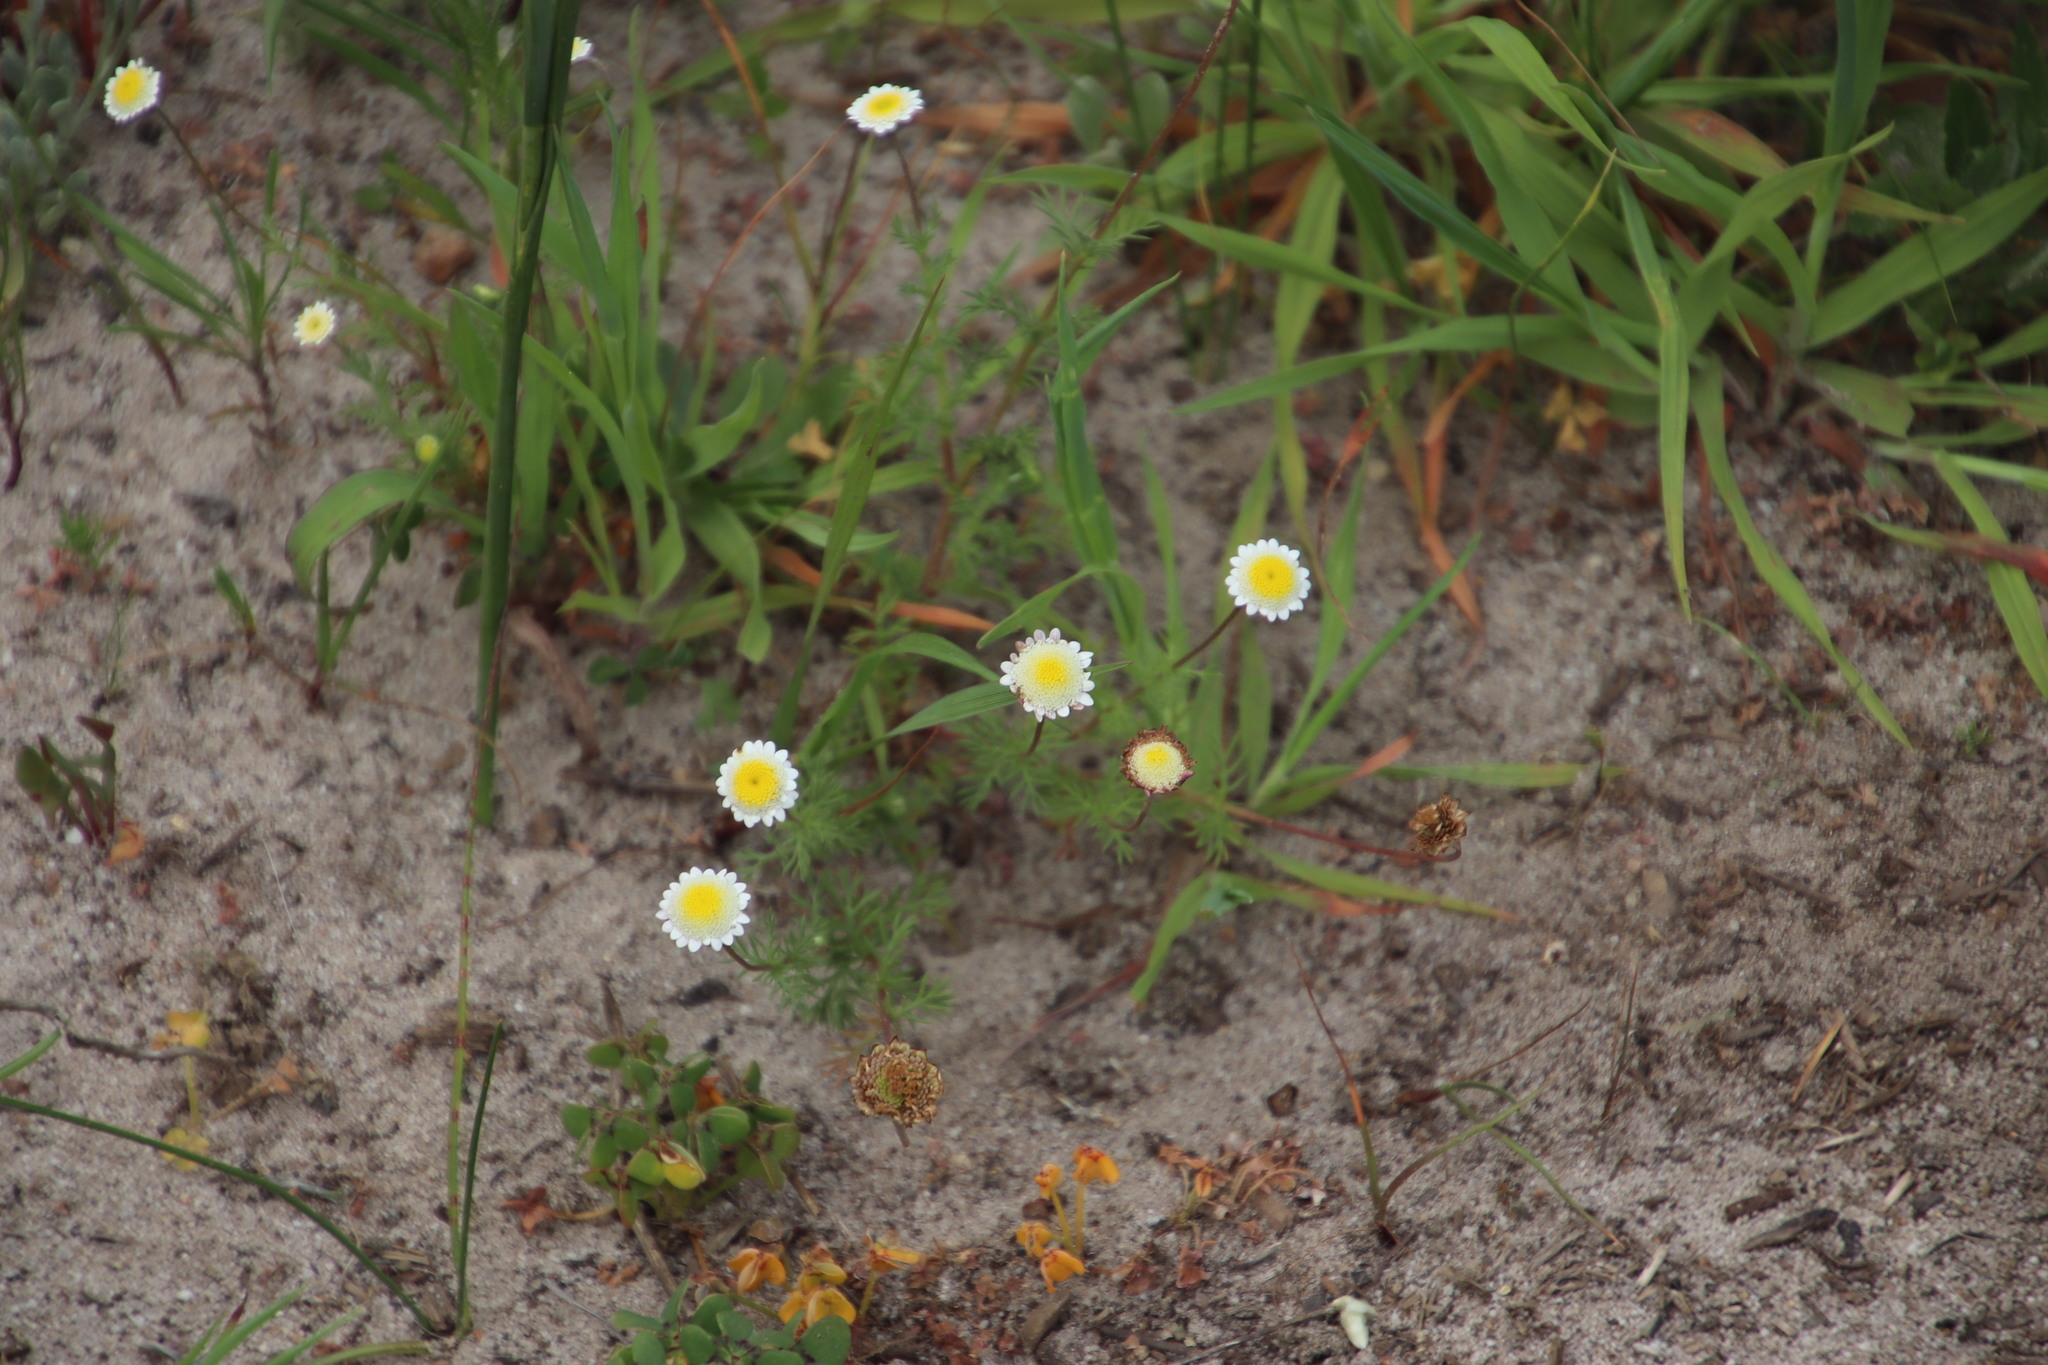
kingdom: Plantae
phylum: Tracheophyta
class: Magnoliopsida
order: Asterales
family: Asteraceae
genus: Cotula
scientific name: Cotula turbinata
